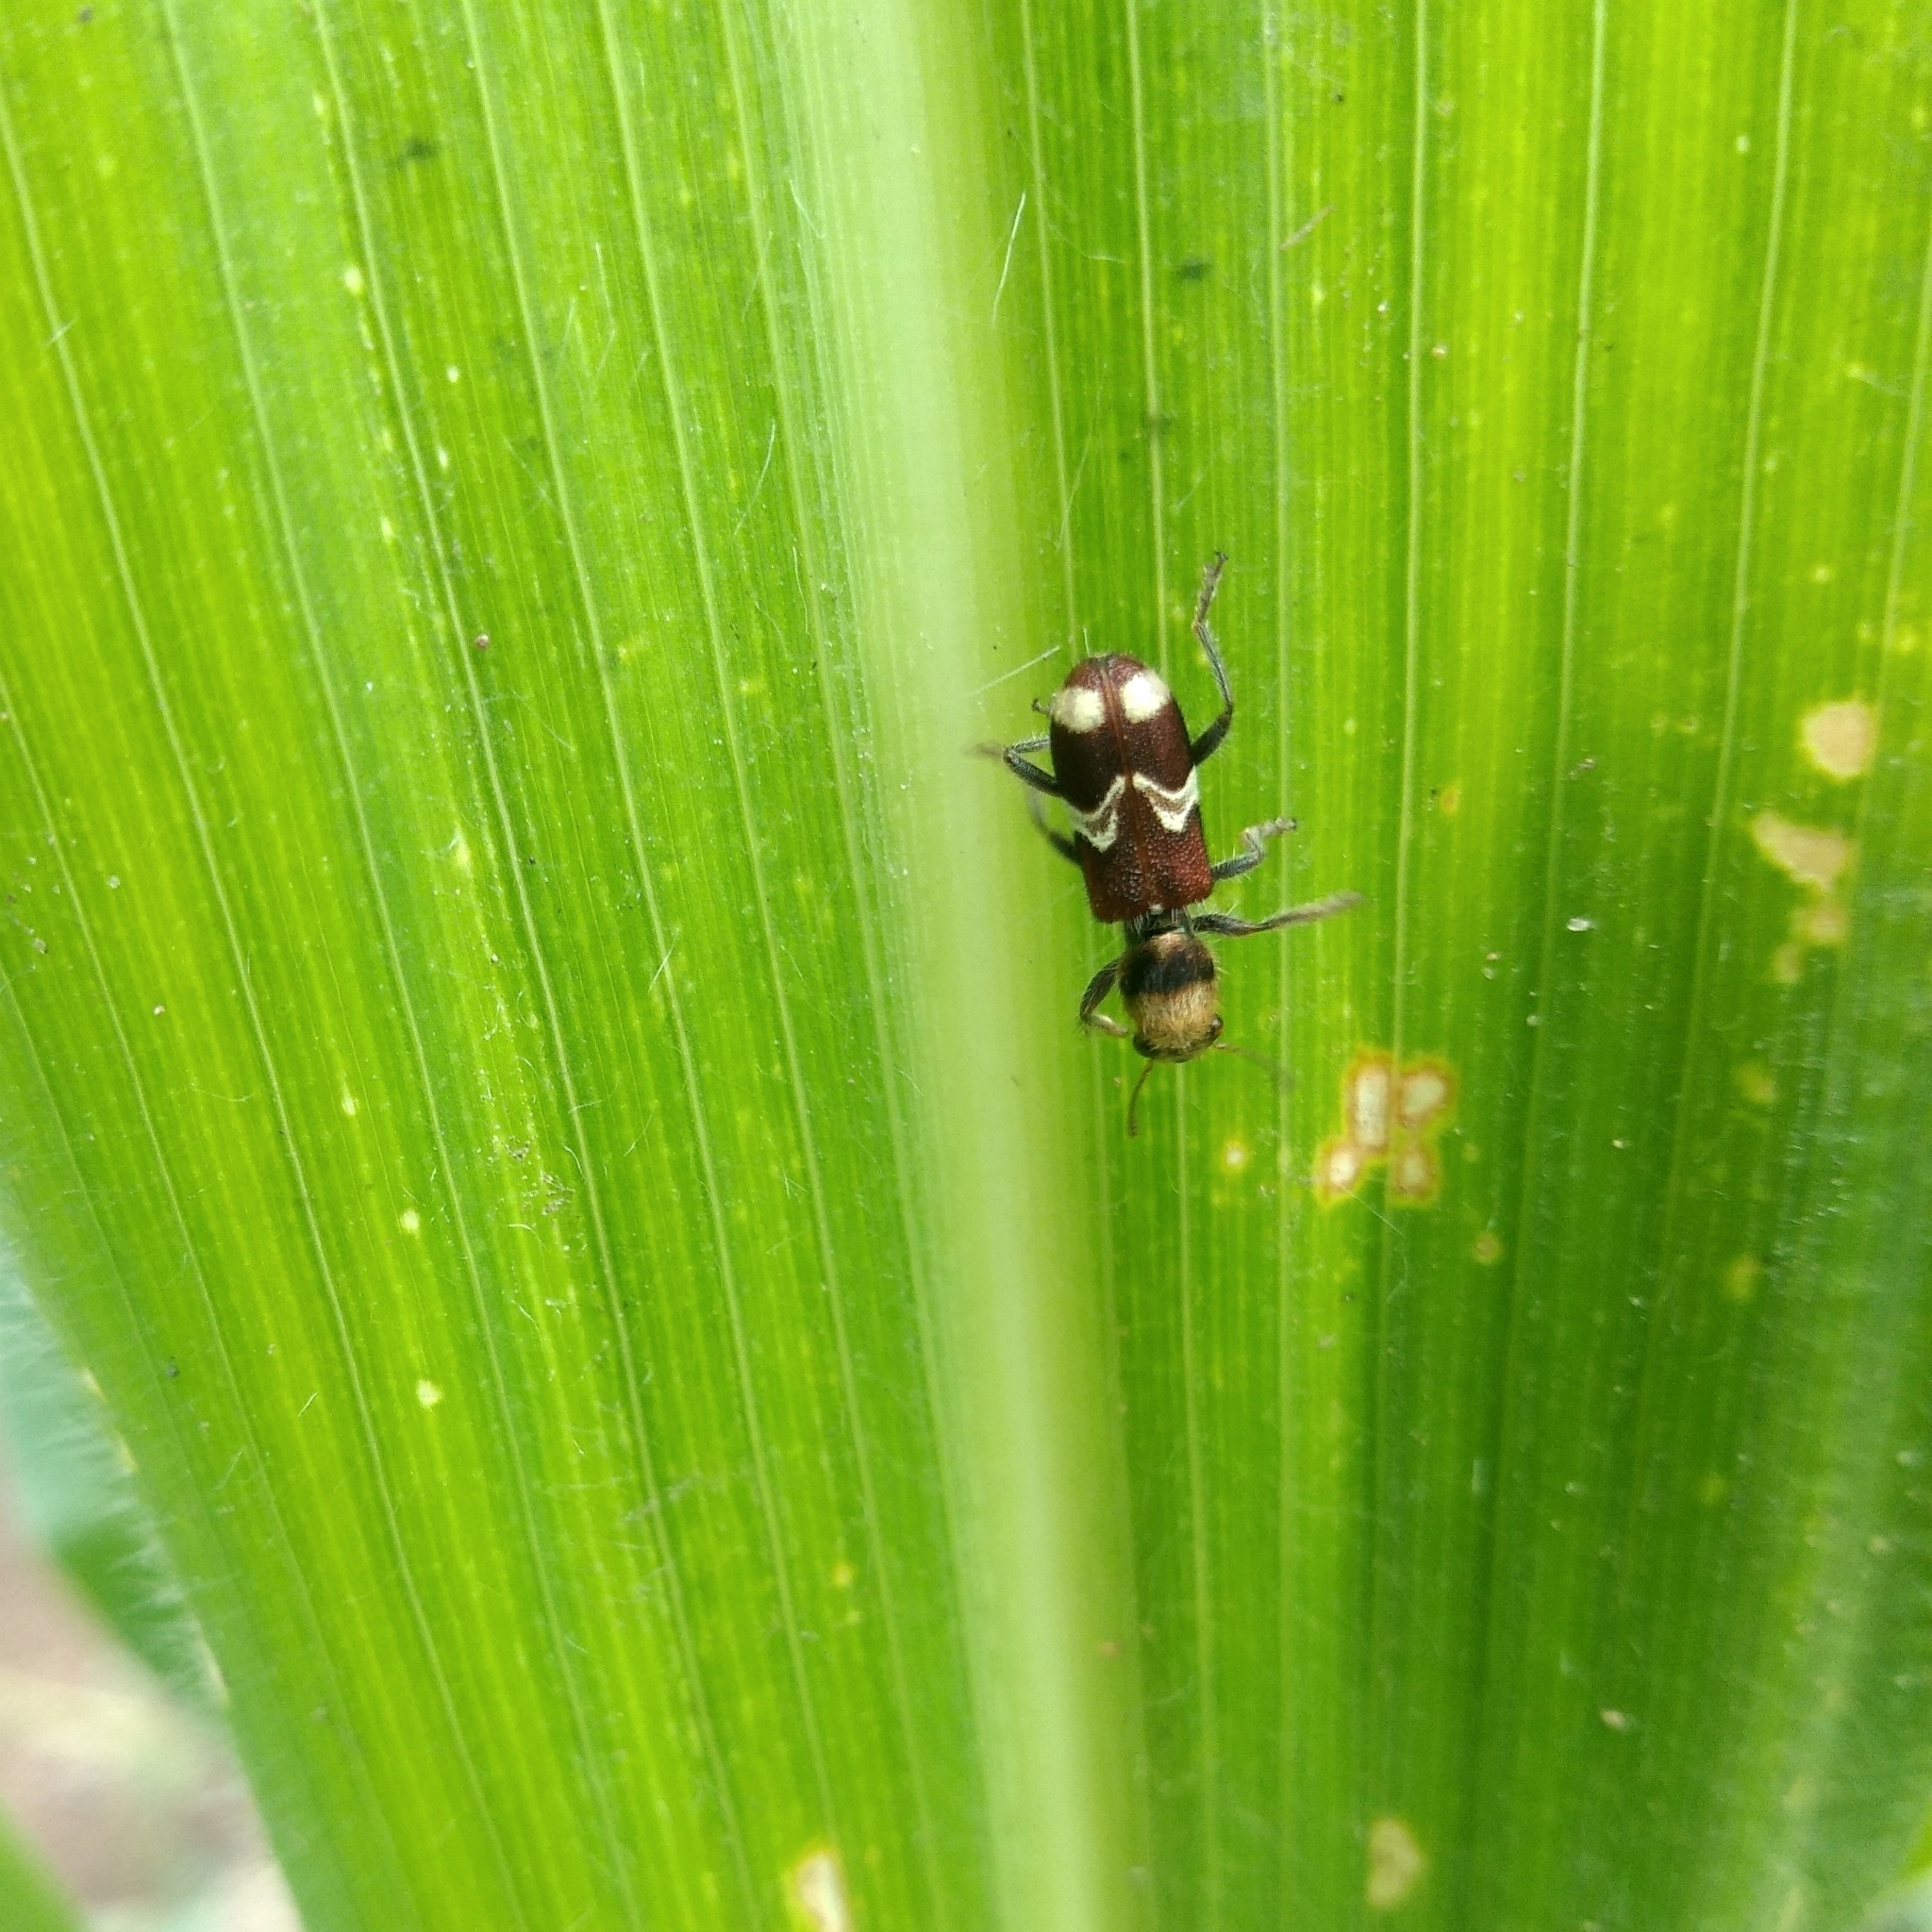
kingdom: Animalia
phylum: Arthropoda
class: Insecta
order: Coleoptera
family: Cleridae
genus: Enoclerus
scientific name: Enoclerus bombycinus
